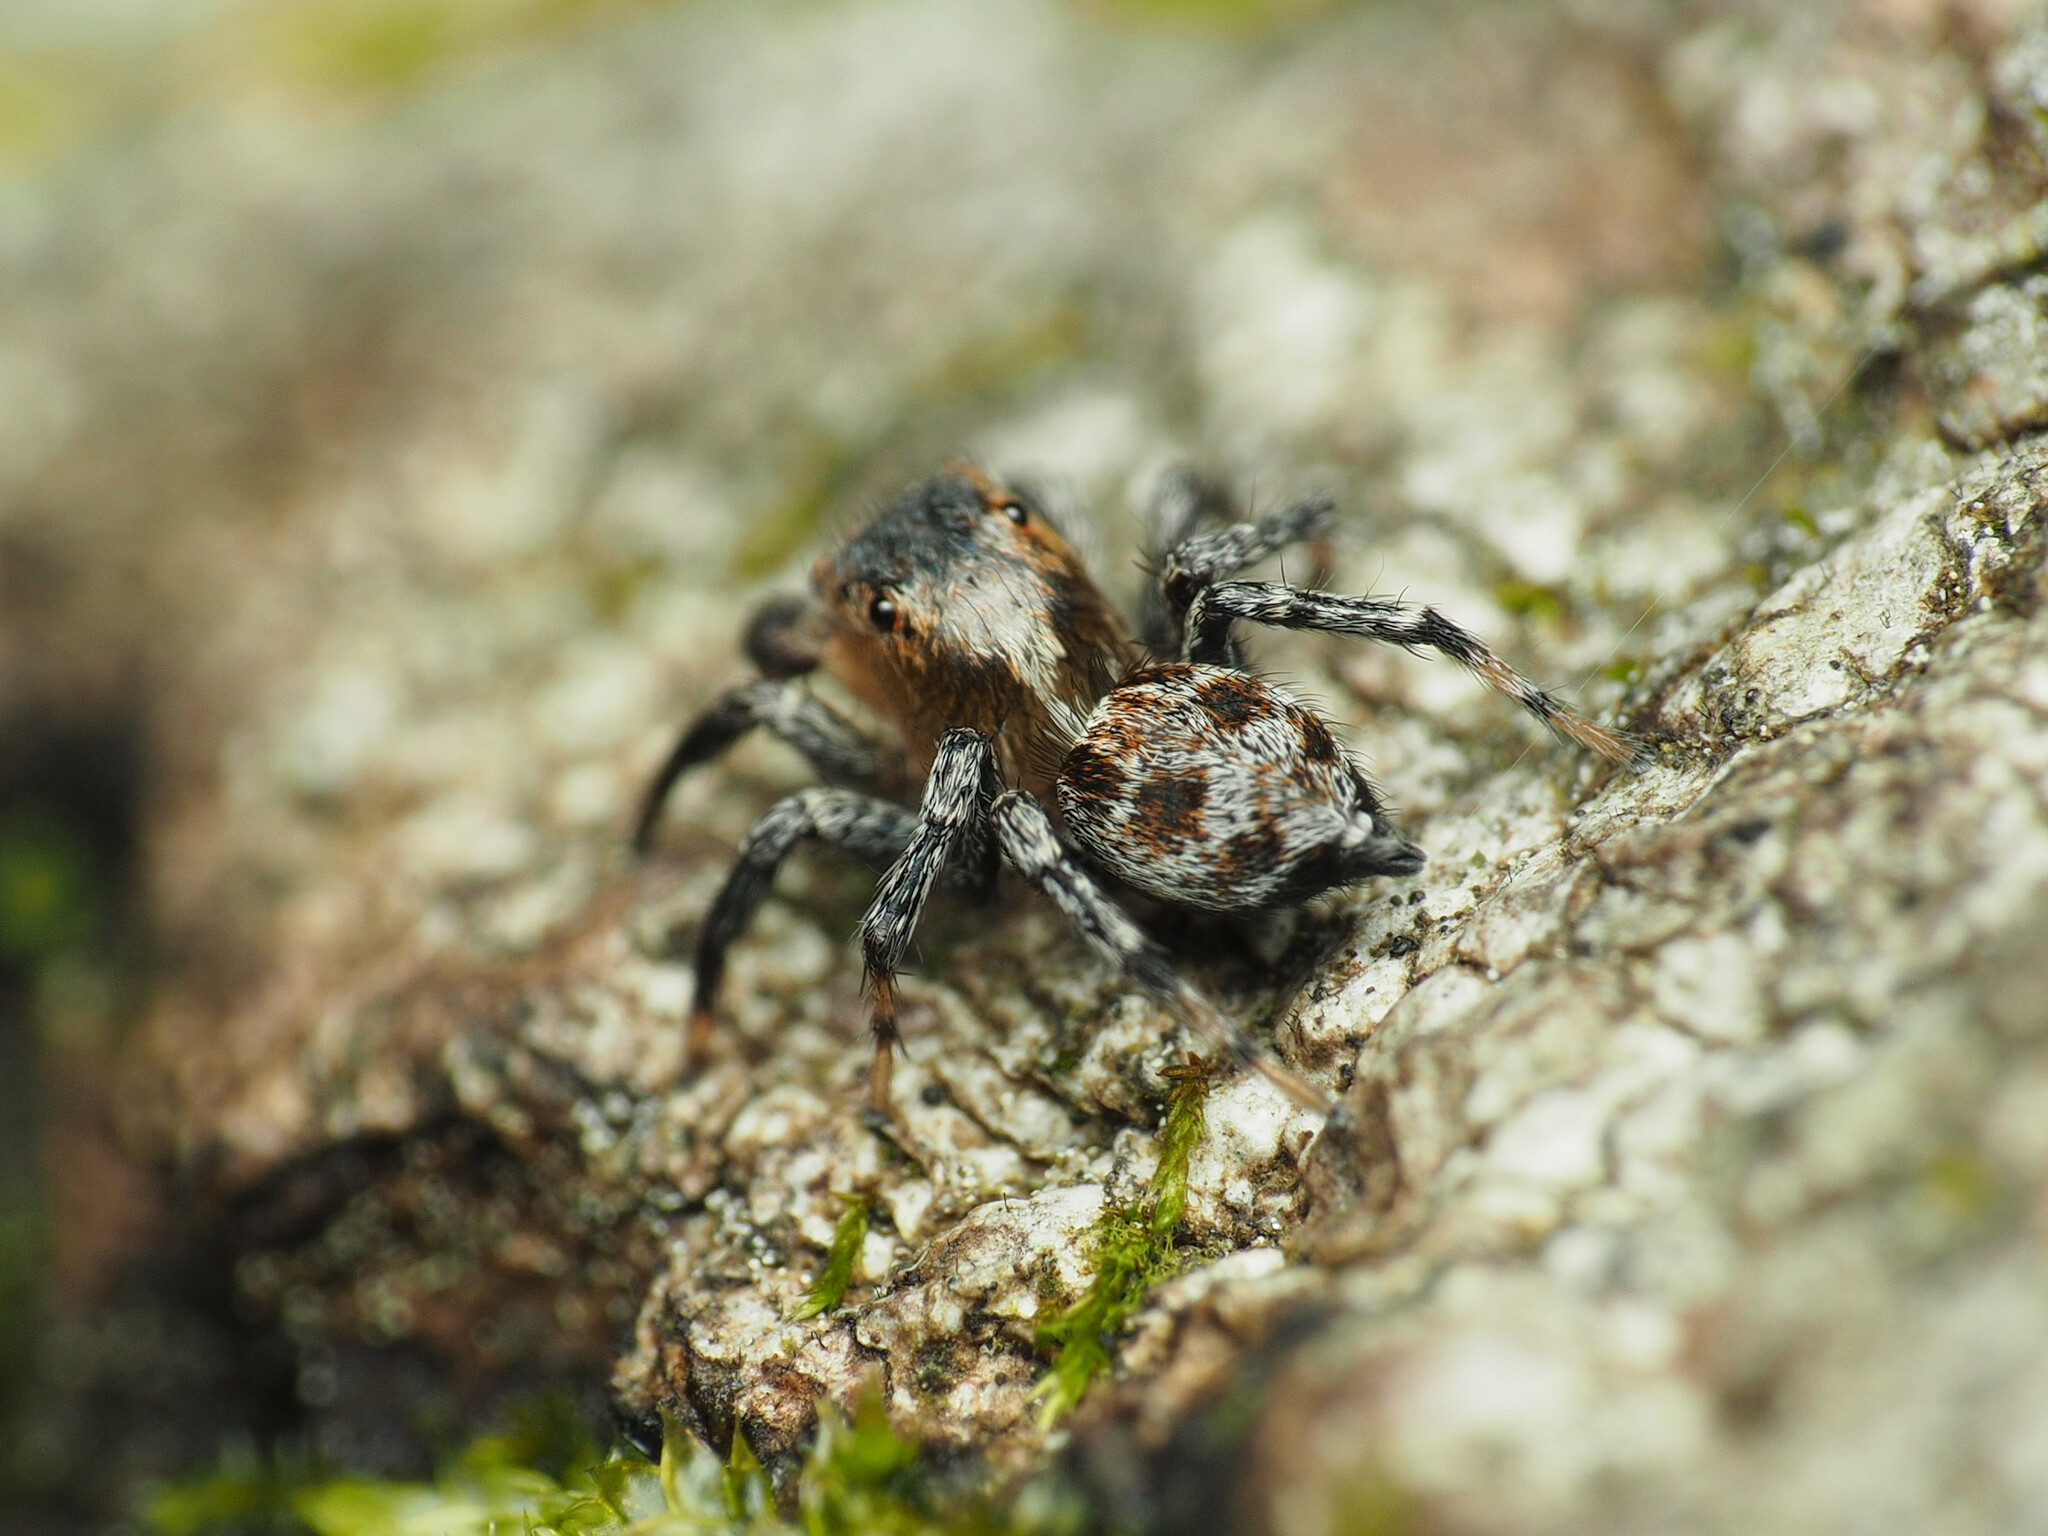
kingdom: Animalia
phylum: Arthropoda
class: Arachnida
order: Araneae
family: Salticidae
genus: Naphrys
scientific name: Naphrys pulex
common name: Flea jumping spider
